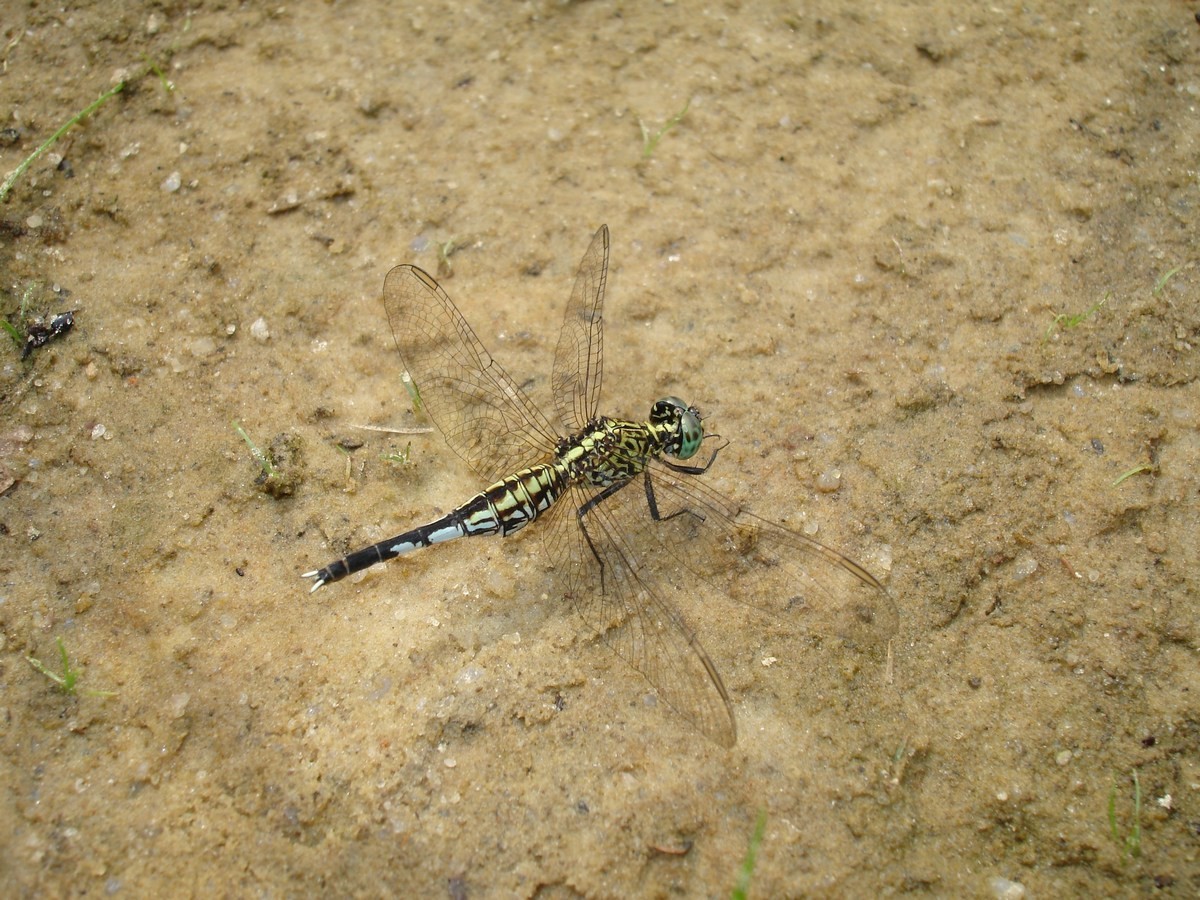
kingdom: Animalia
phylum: Arthropoda
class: Insecta
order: Odonata
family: Libellulidae
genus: Acisoma
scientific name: Acisoma inflatum
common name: Stout pintail
